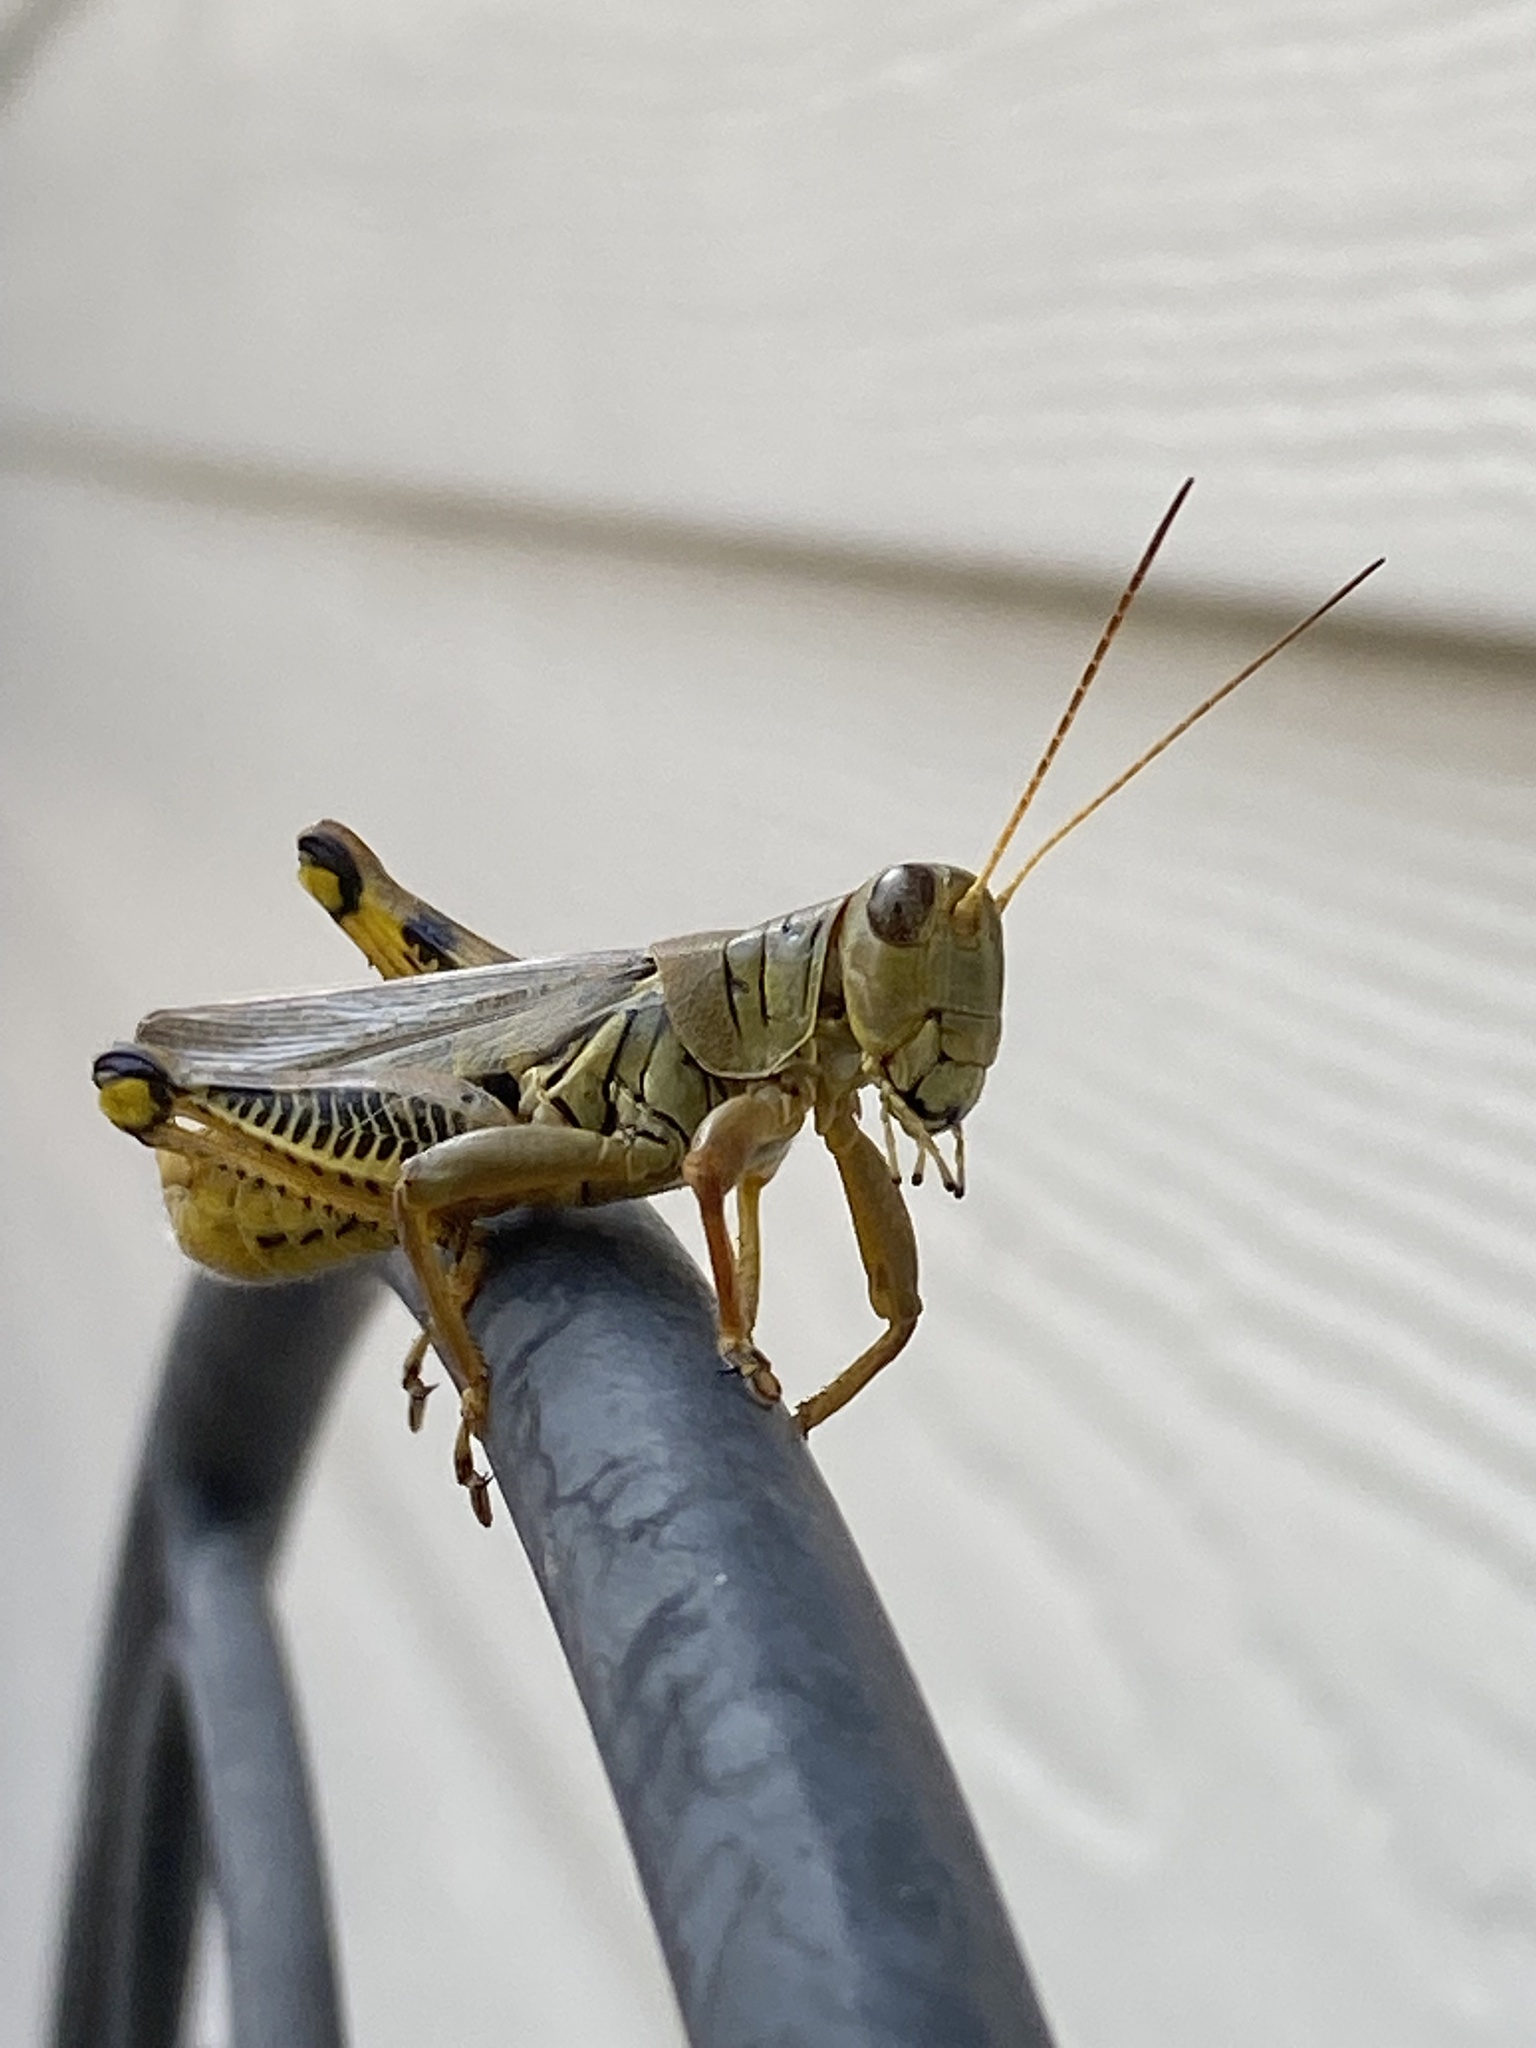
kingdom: Animalia
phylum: Arthropoda
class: Insecta
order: Orthoptera
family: Acrididae
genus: Melanoplus
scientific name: Melanoplus differentialis
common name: Differential grasshopper
